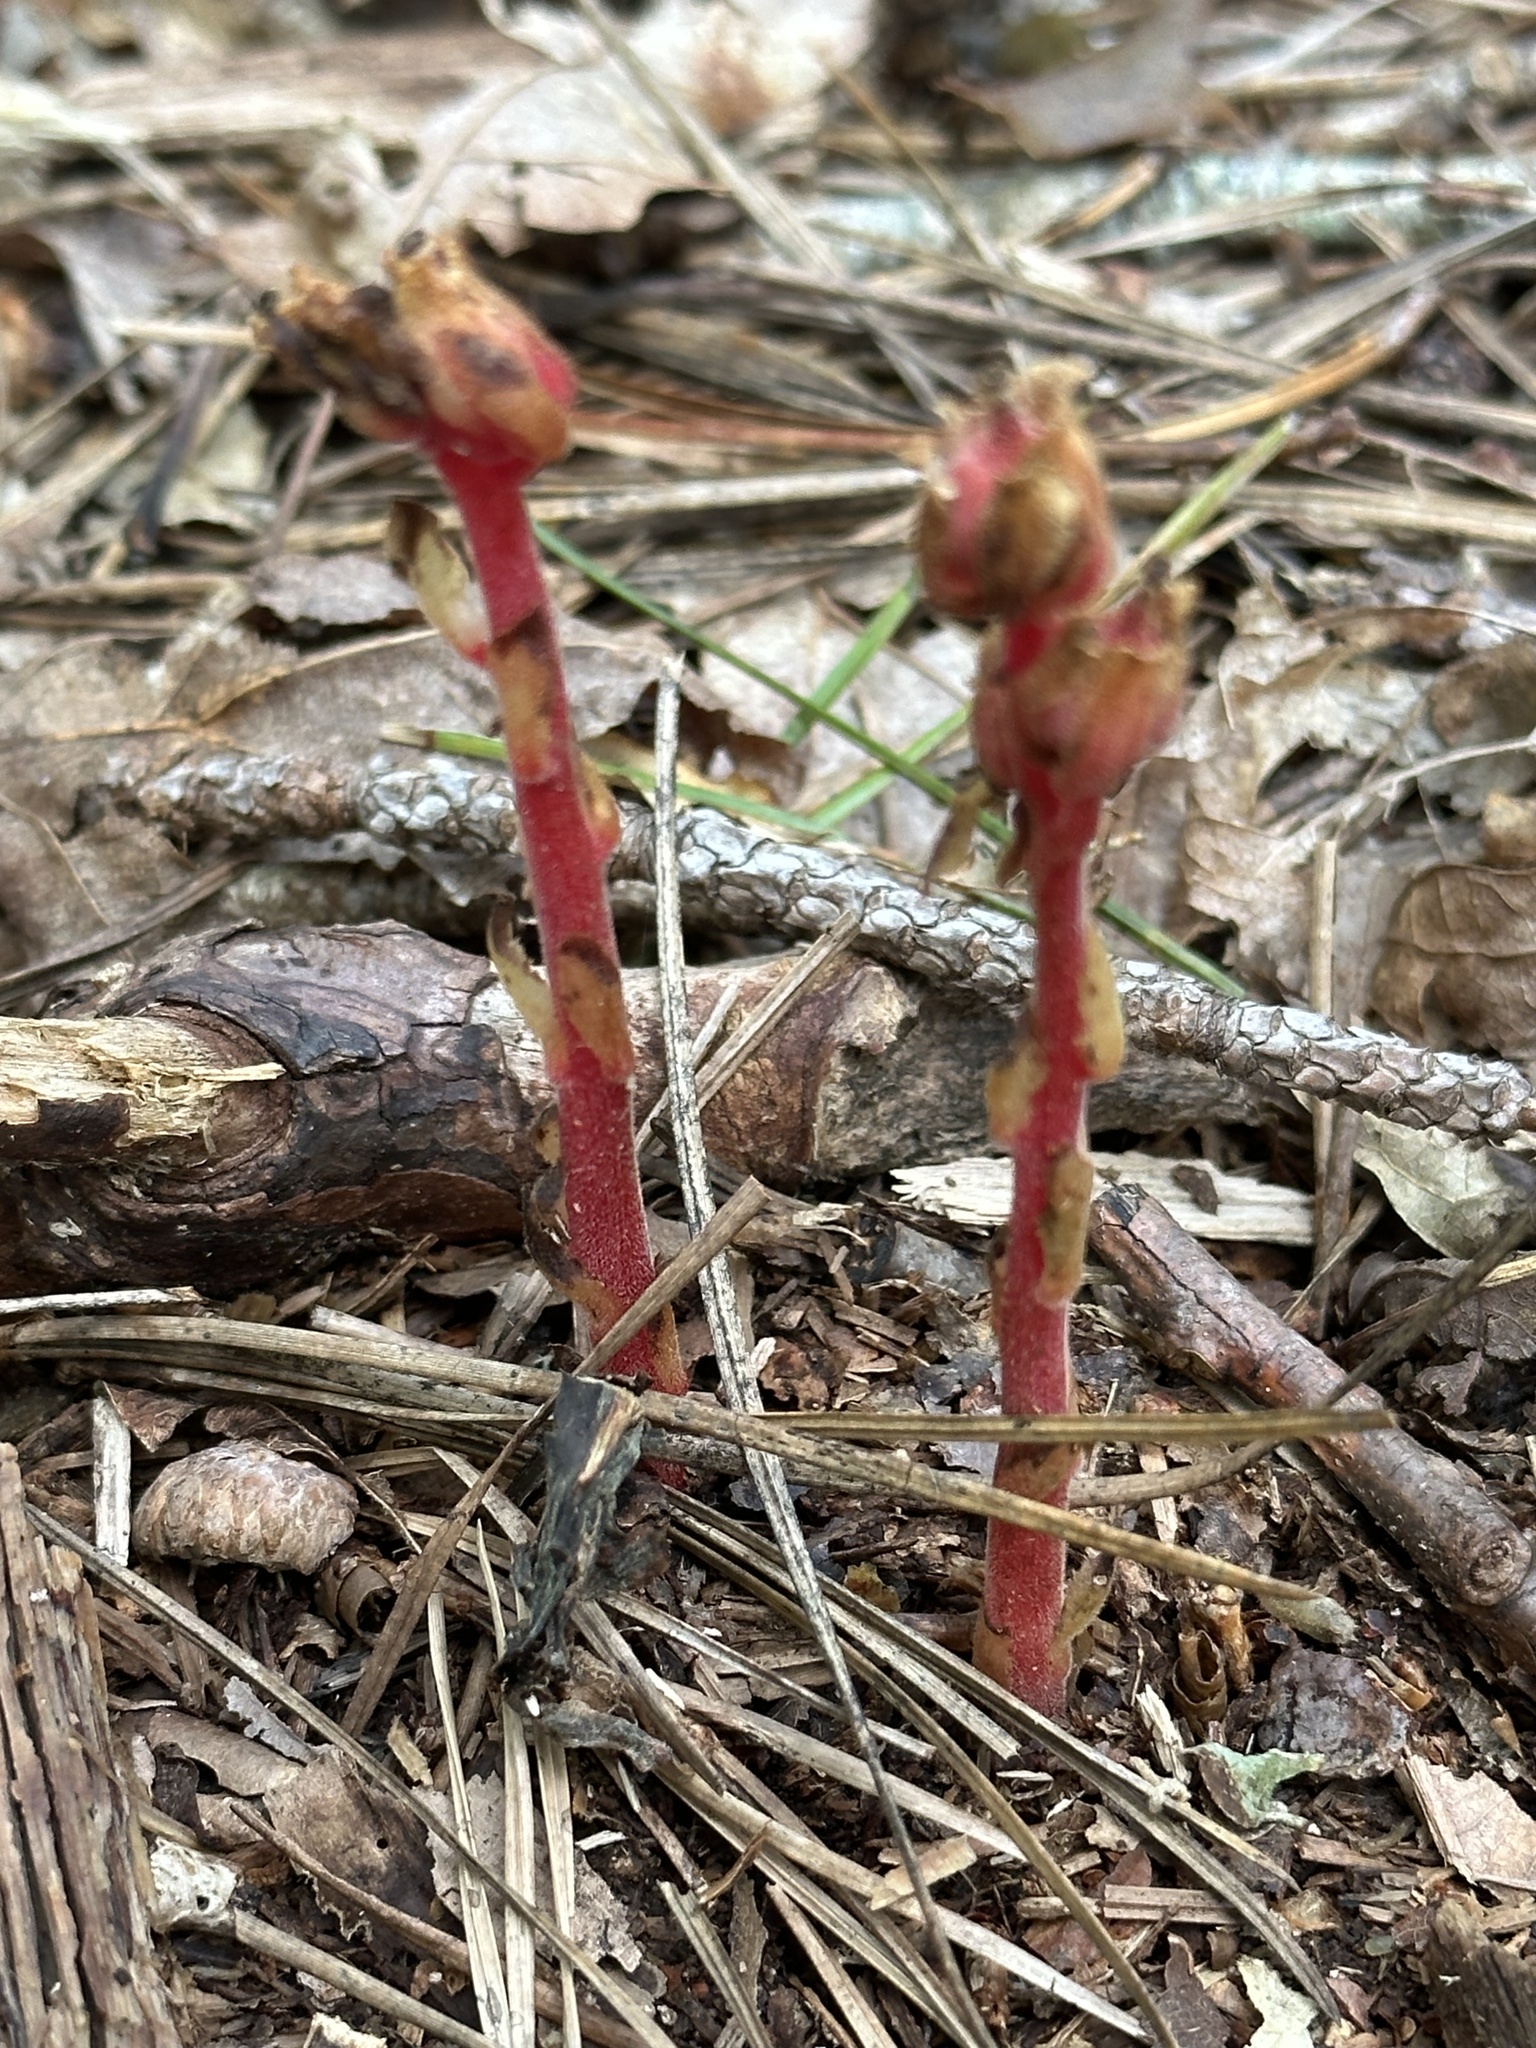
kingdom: Plantae
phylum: Tracheophyta
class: Magnoliopsida
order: Ericales
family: Ericaceae
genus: Hypopitys
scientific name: Hypopitys monotropa
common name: Yellow bird's-nest
